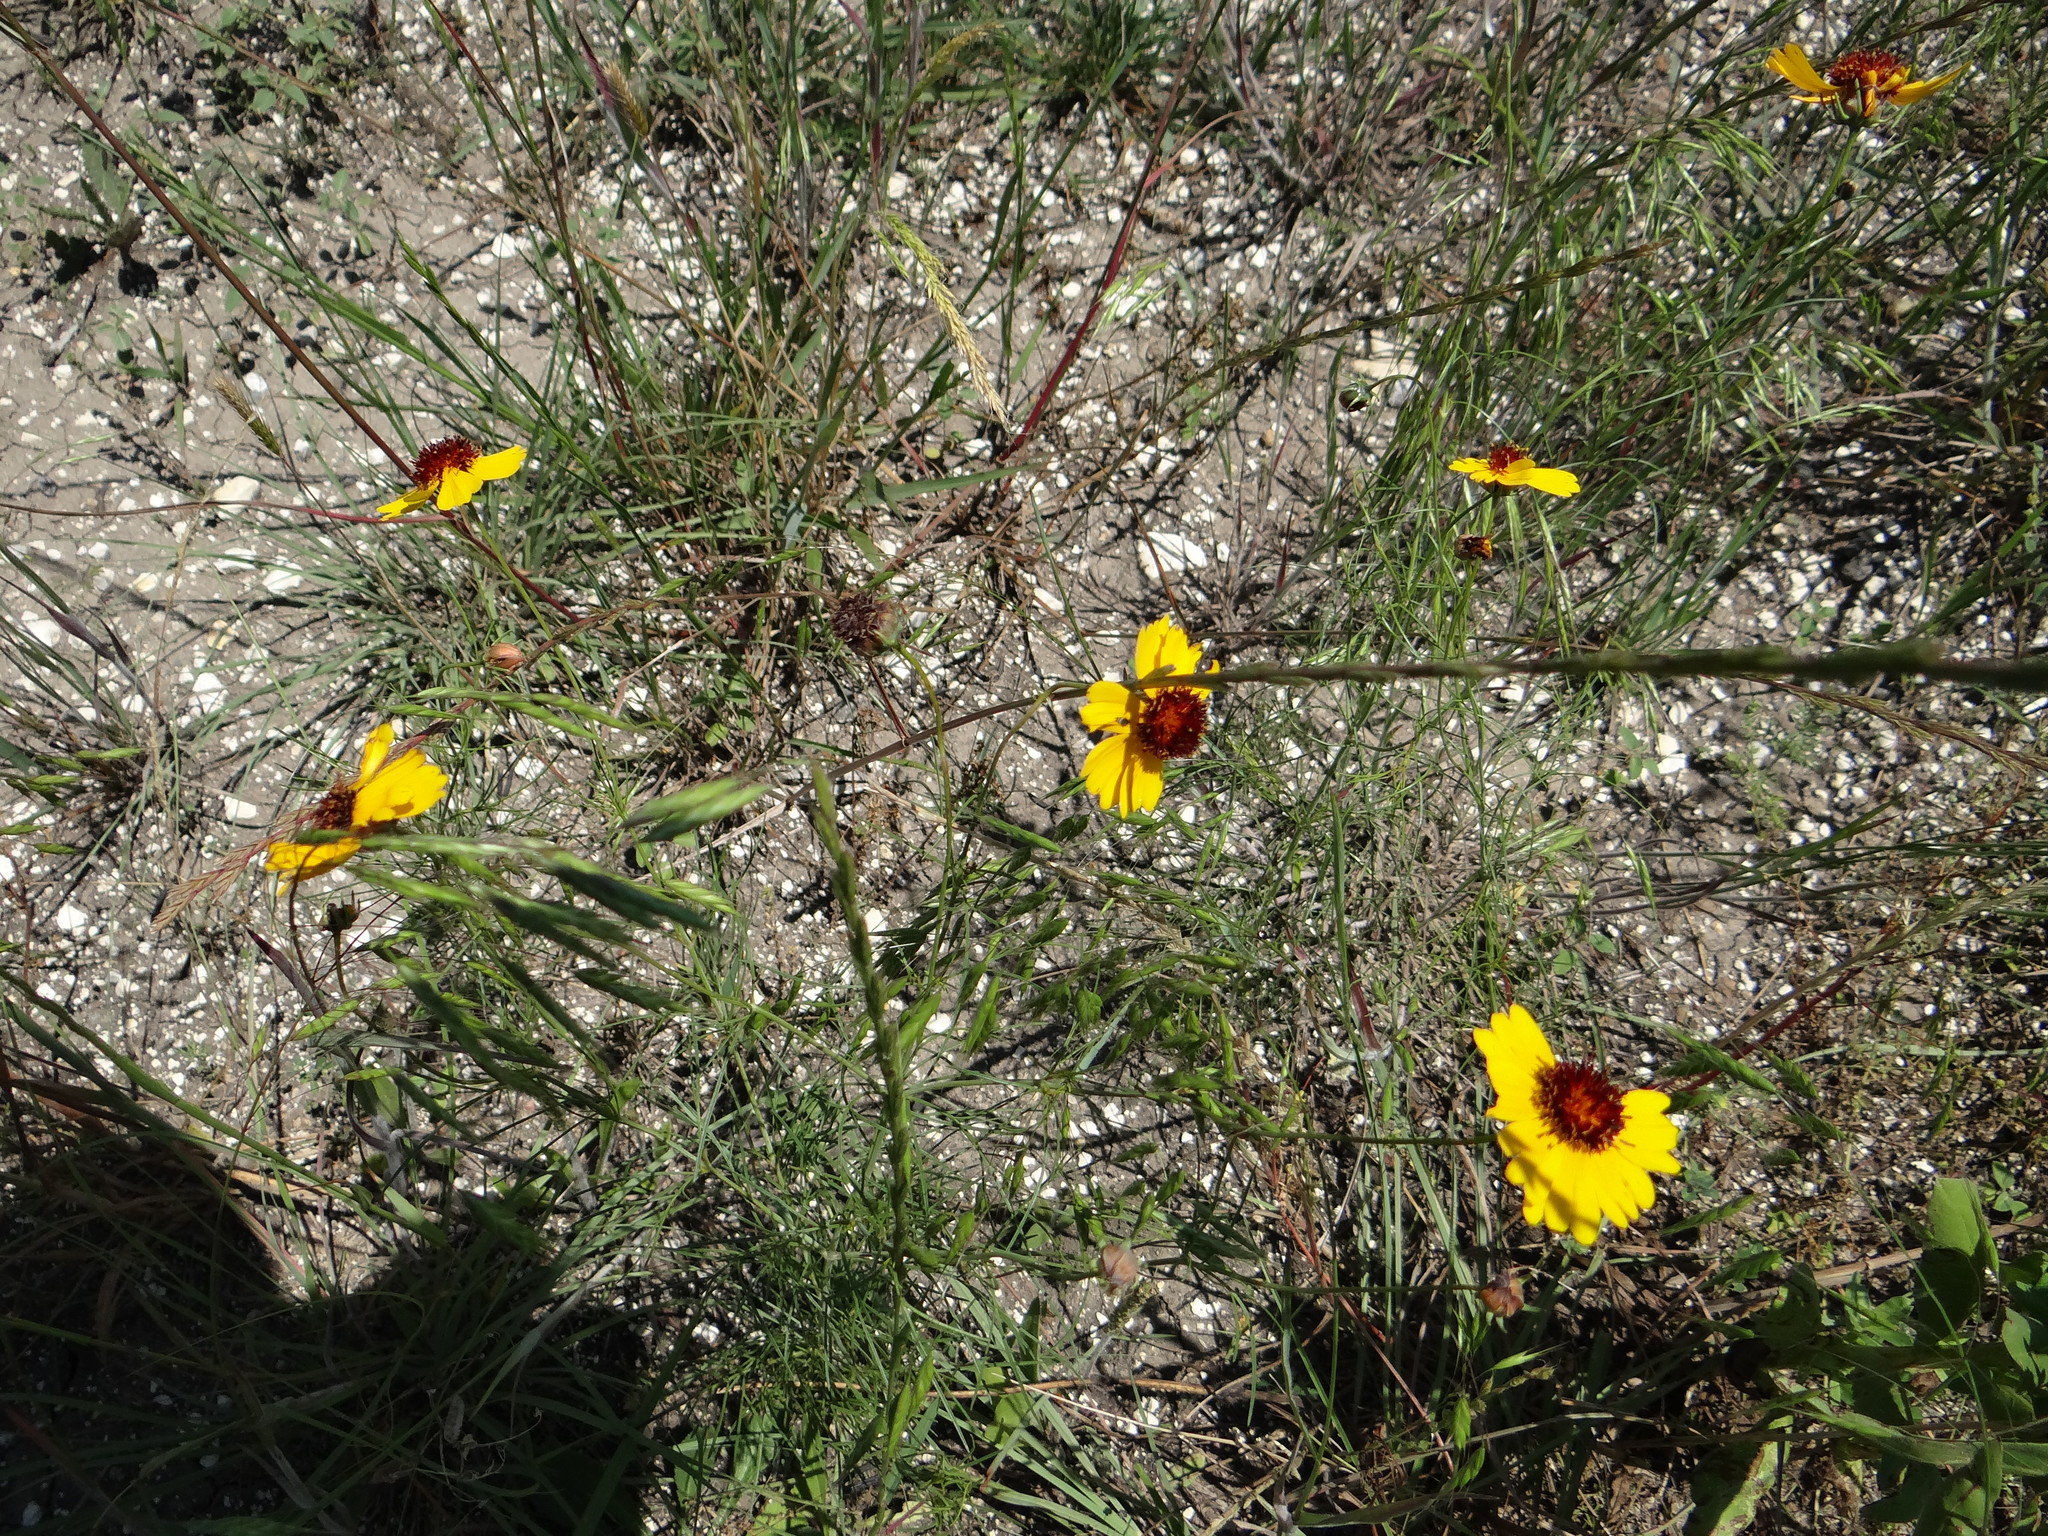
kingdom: Plantae
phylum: Tracheophyta
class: Magnoliopsida
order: Asterales
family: Asteraceae
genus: Thelesperma
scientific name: Thelesperma filifolium
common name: Stiff greenthread
